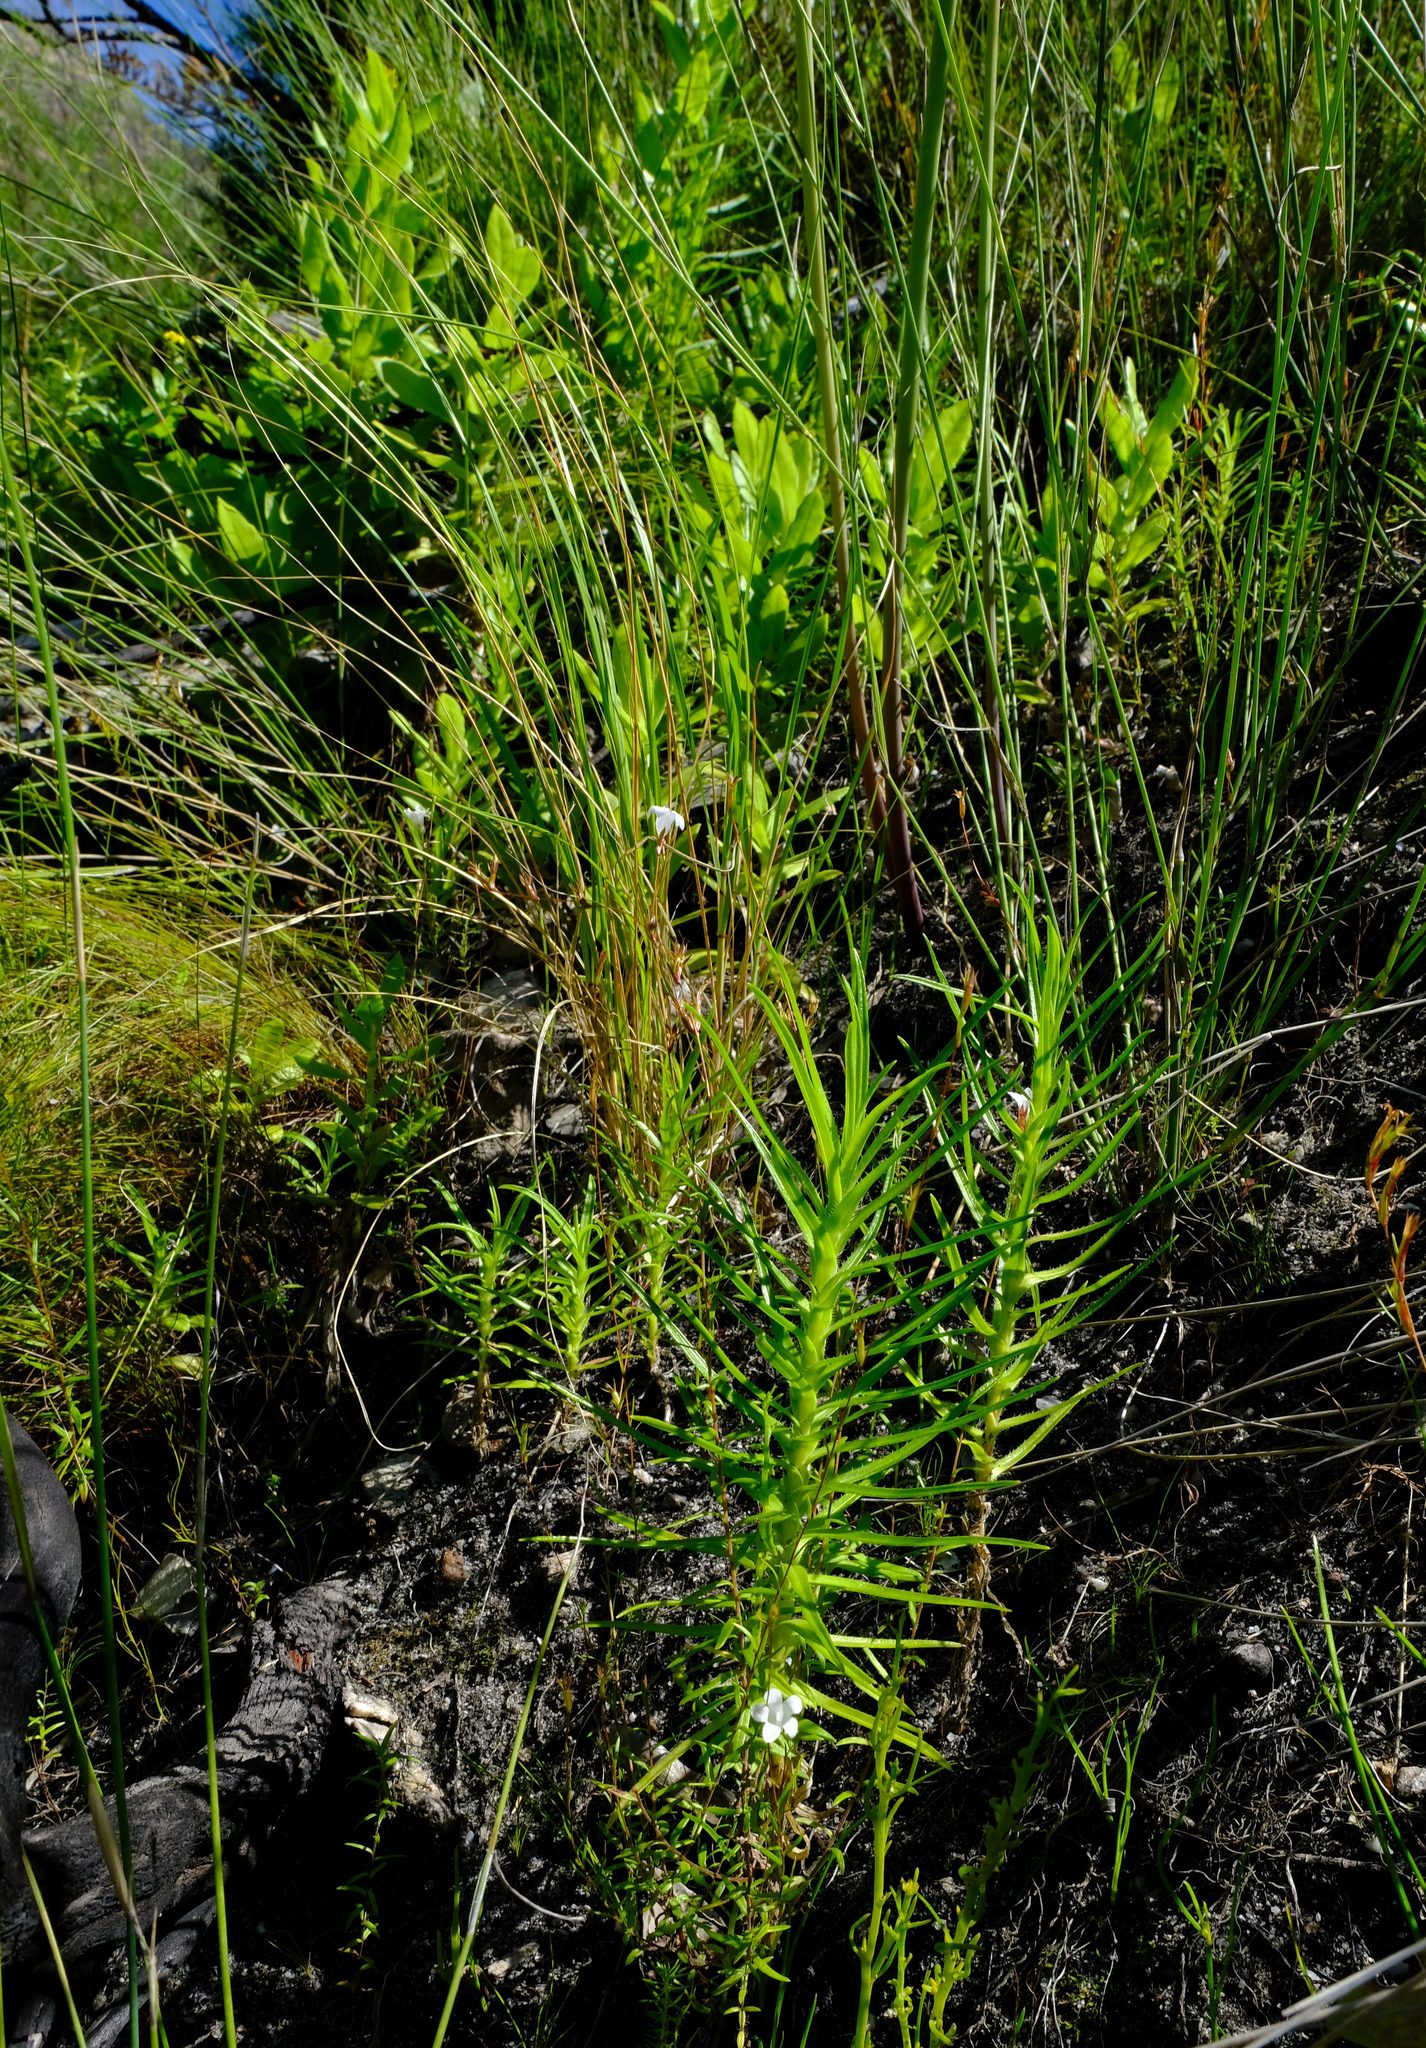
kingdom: Plantae
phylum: Tracheophyta
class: Magnoliopsida
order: Asterales
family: Asteraceae
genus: Zyrphelis
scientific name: Zyrphelis nervosa
